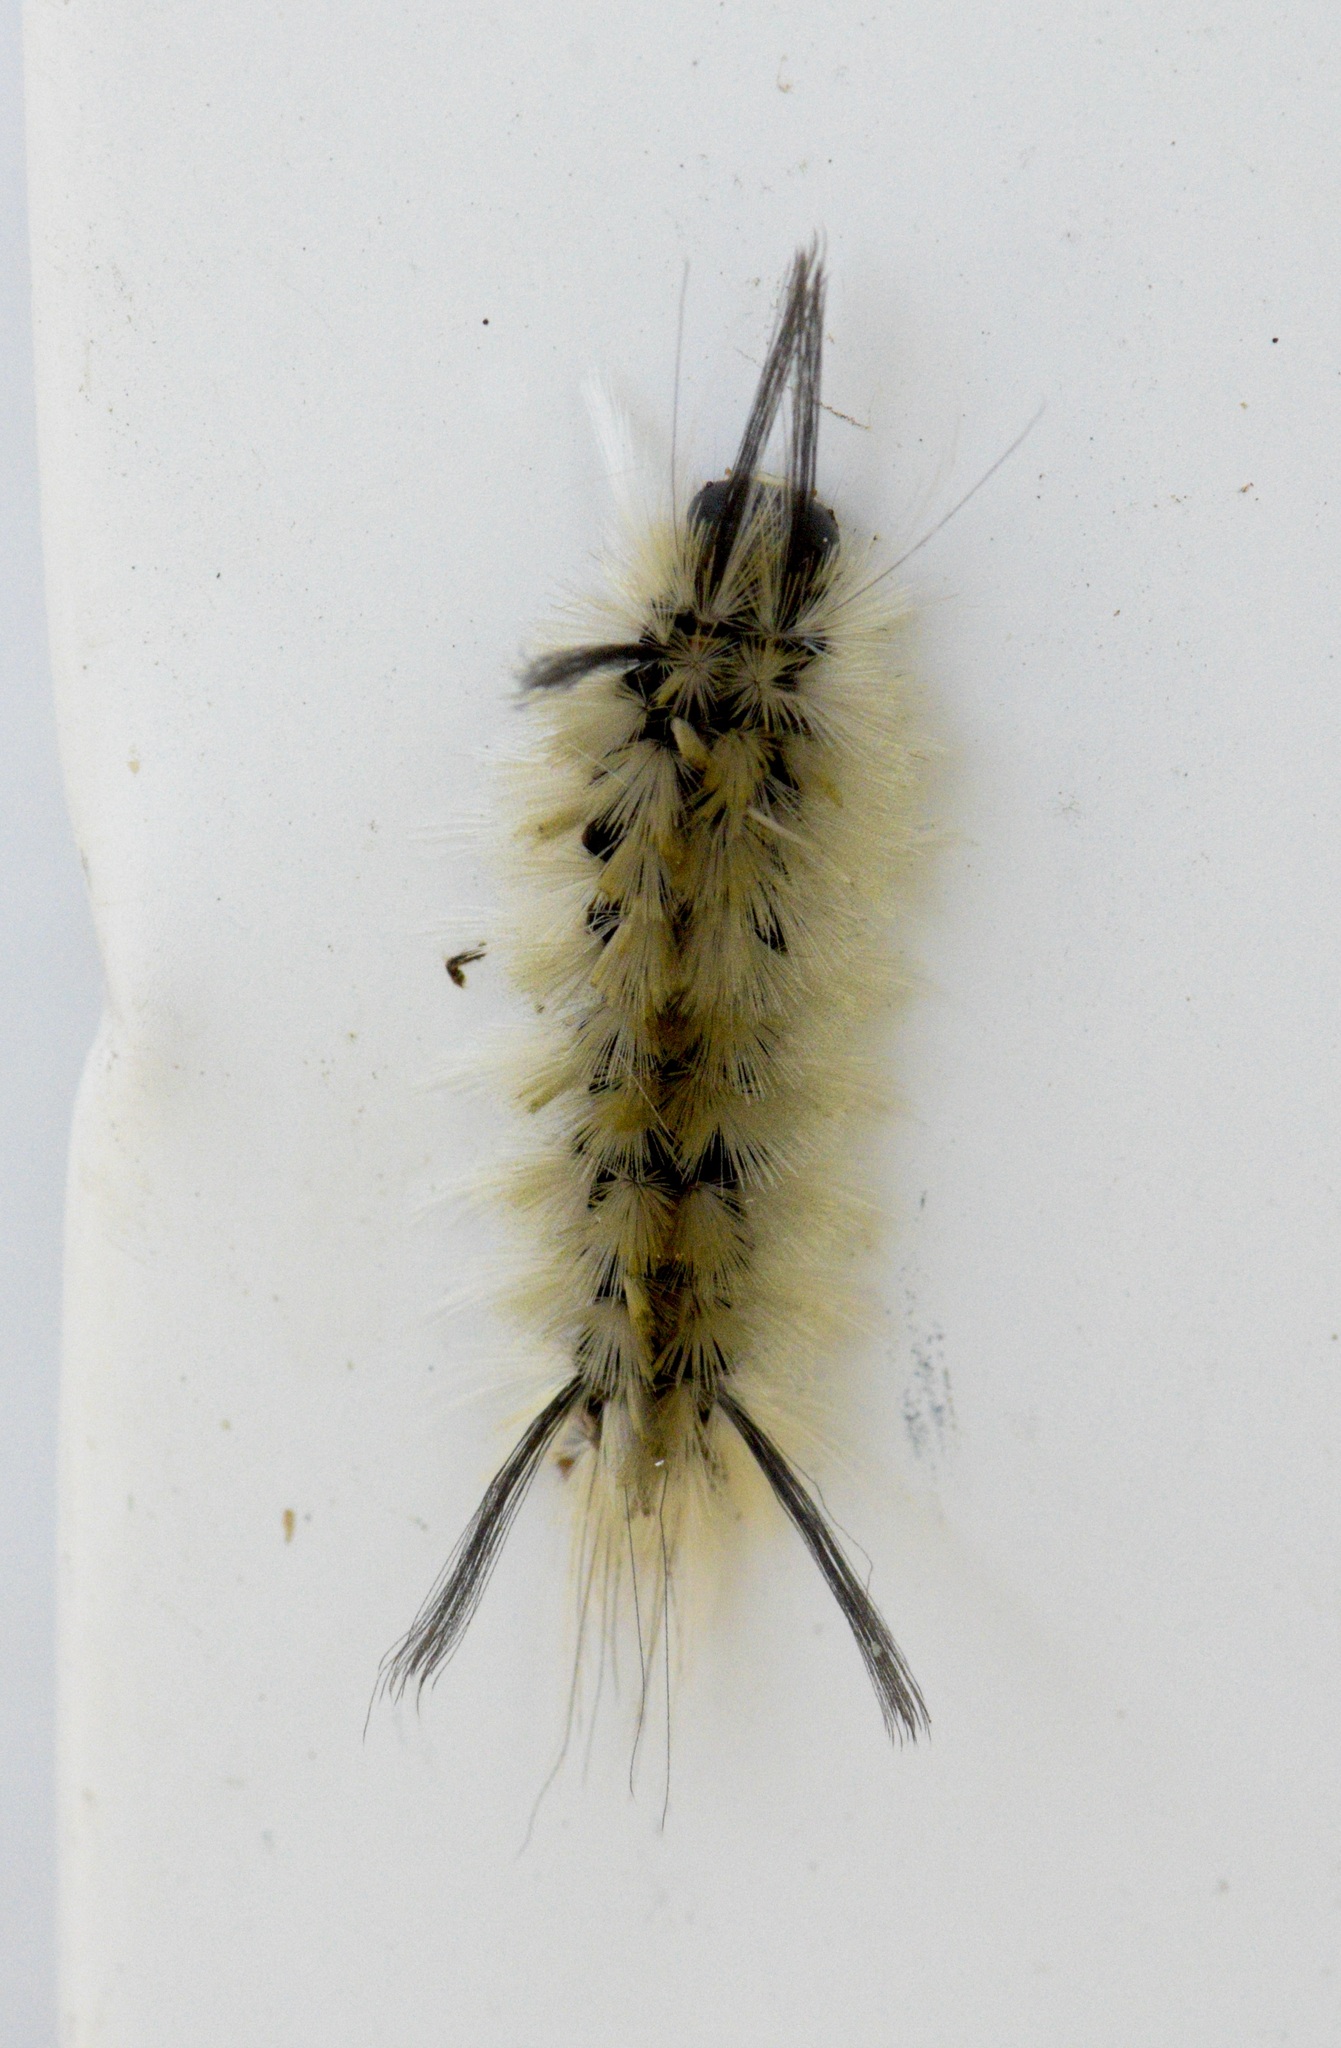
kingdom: Animalia
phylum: Arthropoda
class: Insecta
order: Lepidoptera
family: Erebidae
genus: Halysidota
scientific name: Halysidota tessellaris
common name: Banded tussock moth
